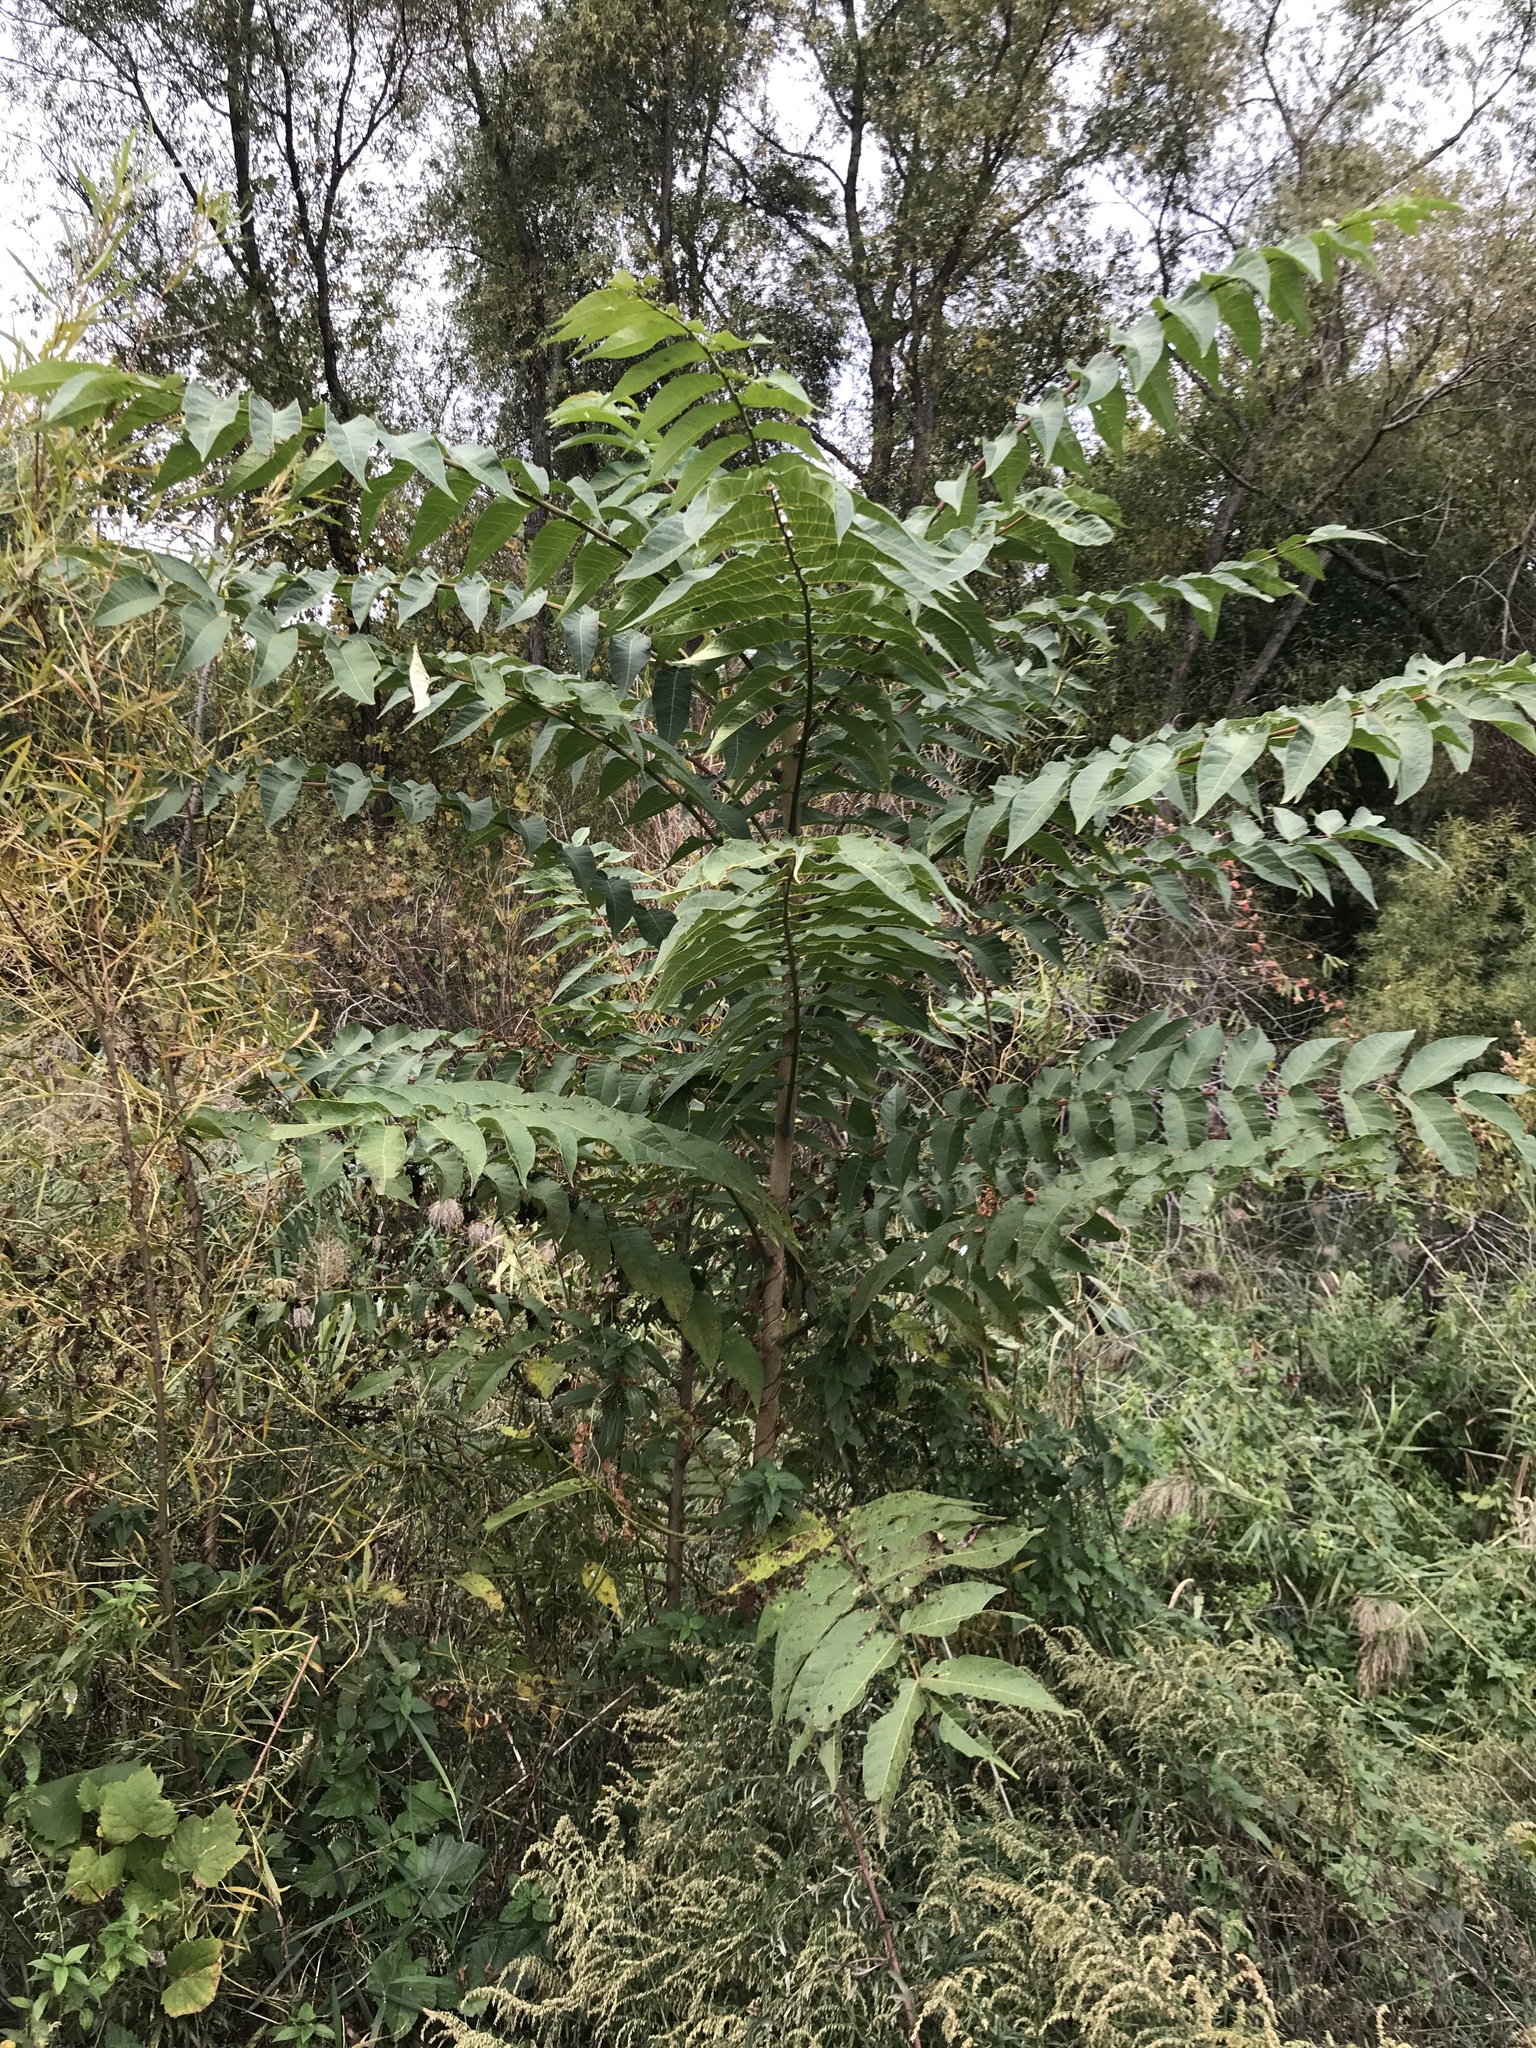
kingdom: Plantae
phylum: Tracheophyta
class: Magnoliopsida
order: Sapindales
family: Simaroubaceae
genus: Ailanthus
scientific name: Ailanthus altissima
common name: Tree-of-heaven
